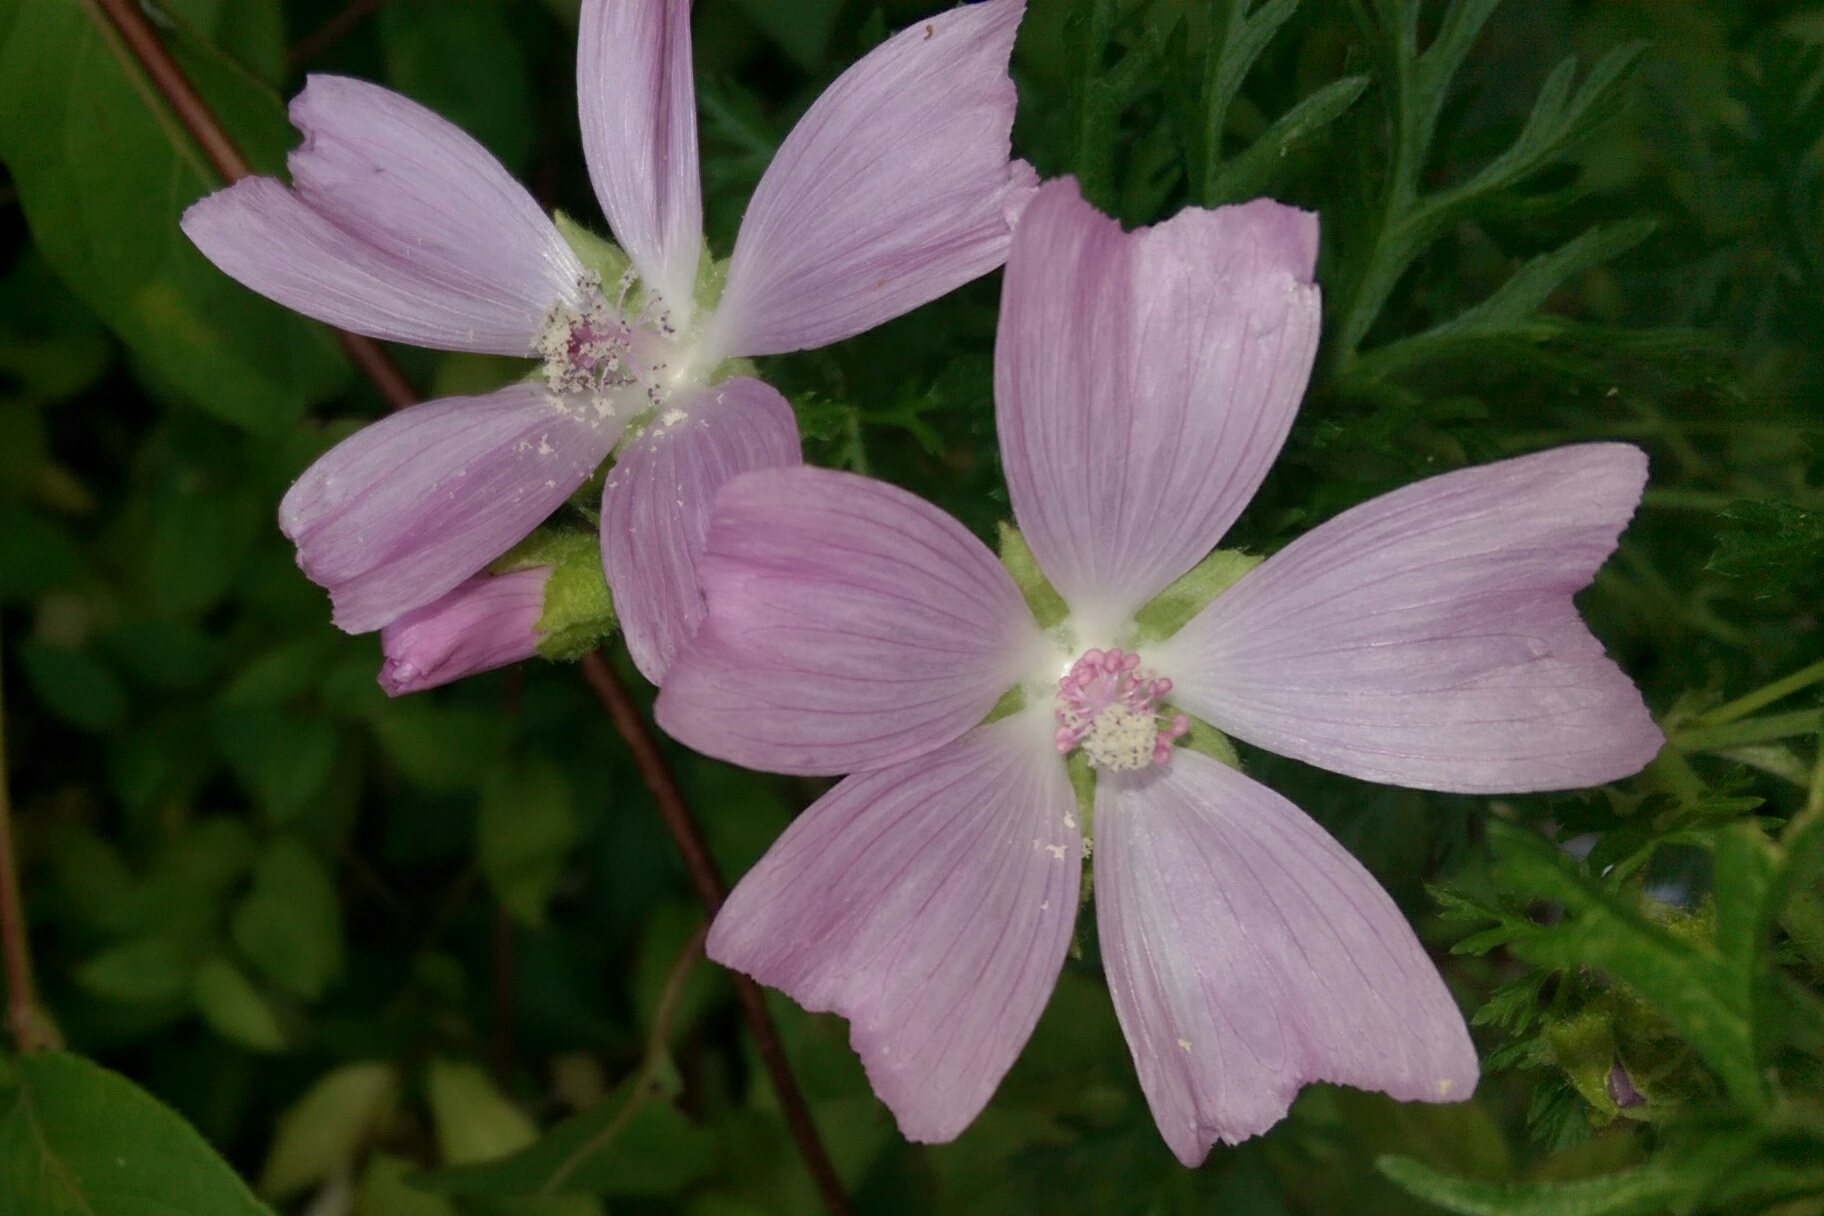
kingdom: Plantae
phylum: Tracheophyta
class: Magnoliopsida
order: Malvales
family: Malvaceae
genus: Malva
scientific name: Malva moschata
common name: Musk mallow
